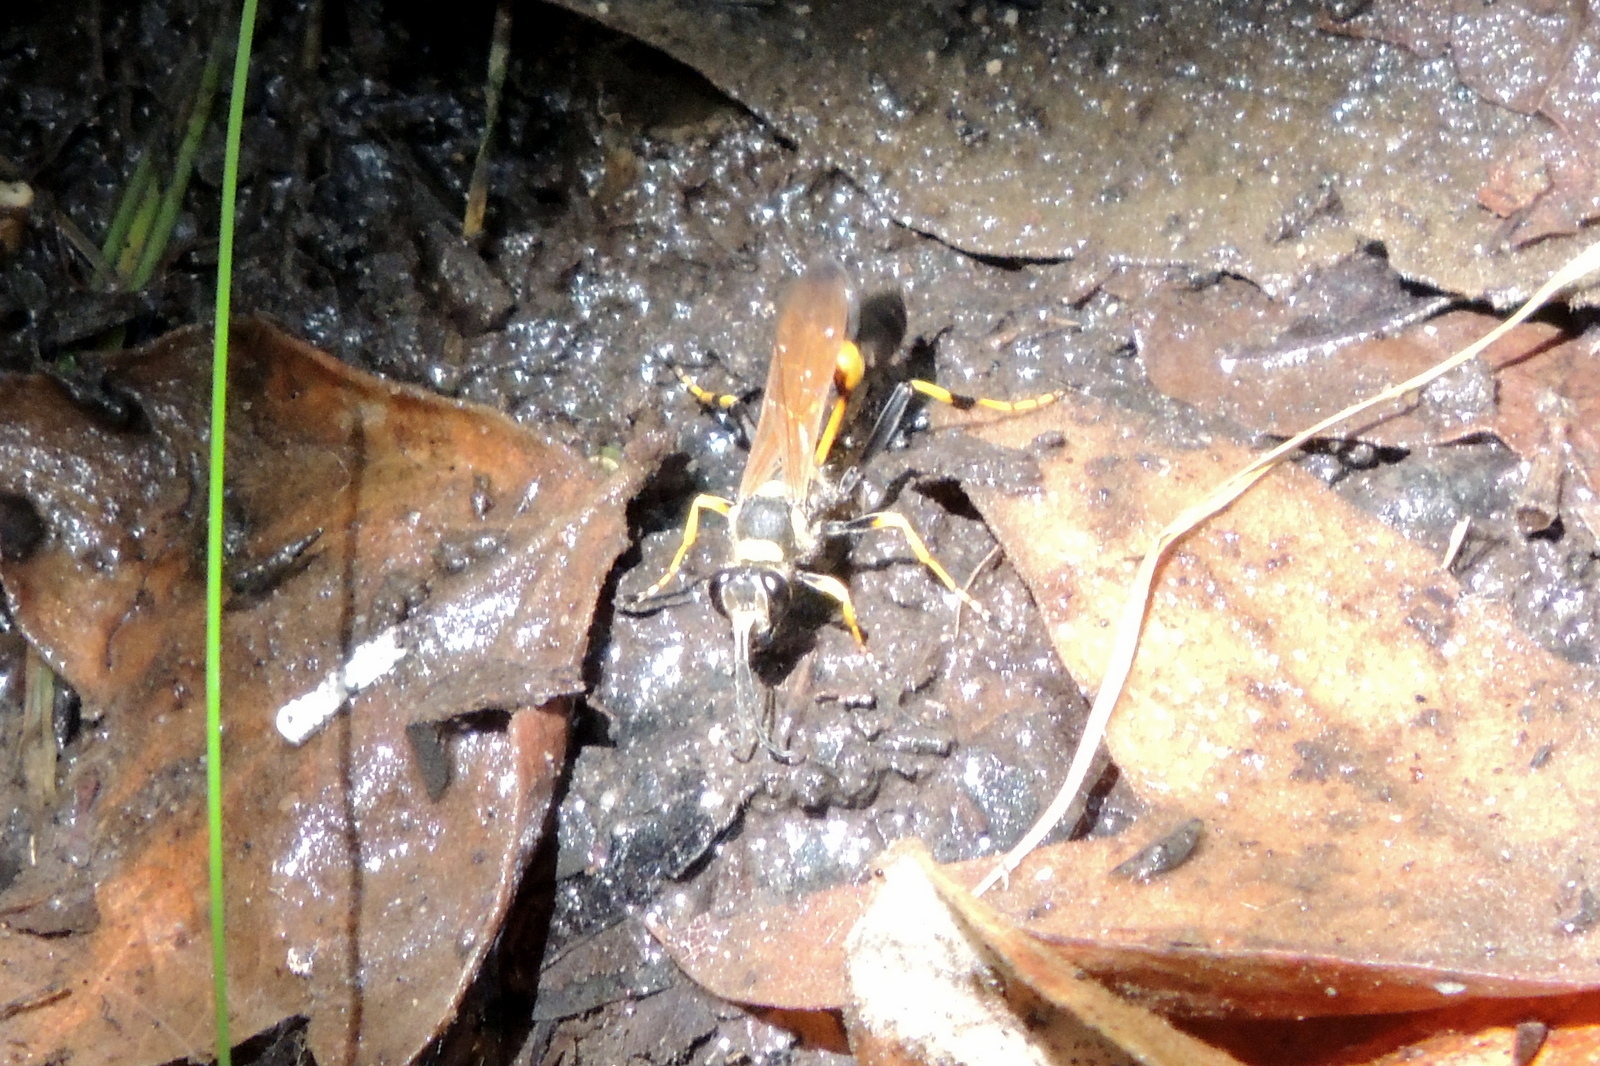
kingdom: Animalia
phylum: Arthropoda
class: Insecta
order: Hymenoptera
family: Sphecidae
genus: Sceliphron
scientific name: Sceliphron caementarium
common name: Mud dauber
